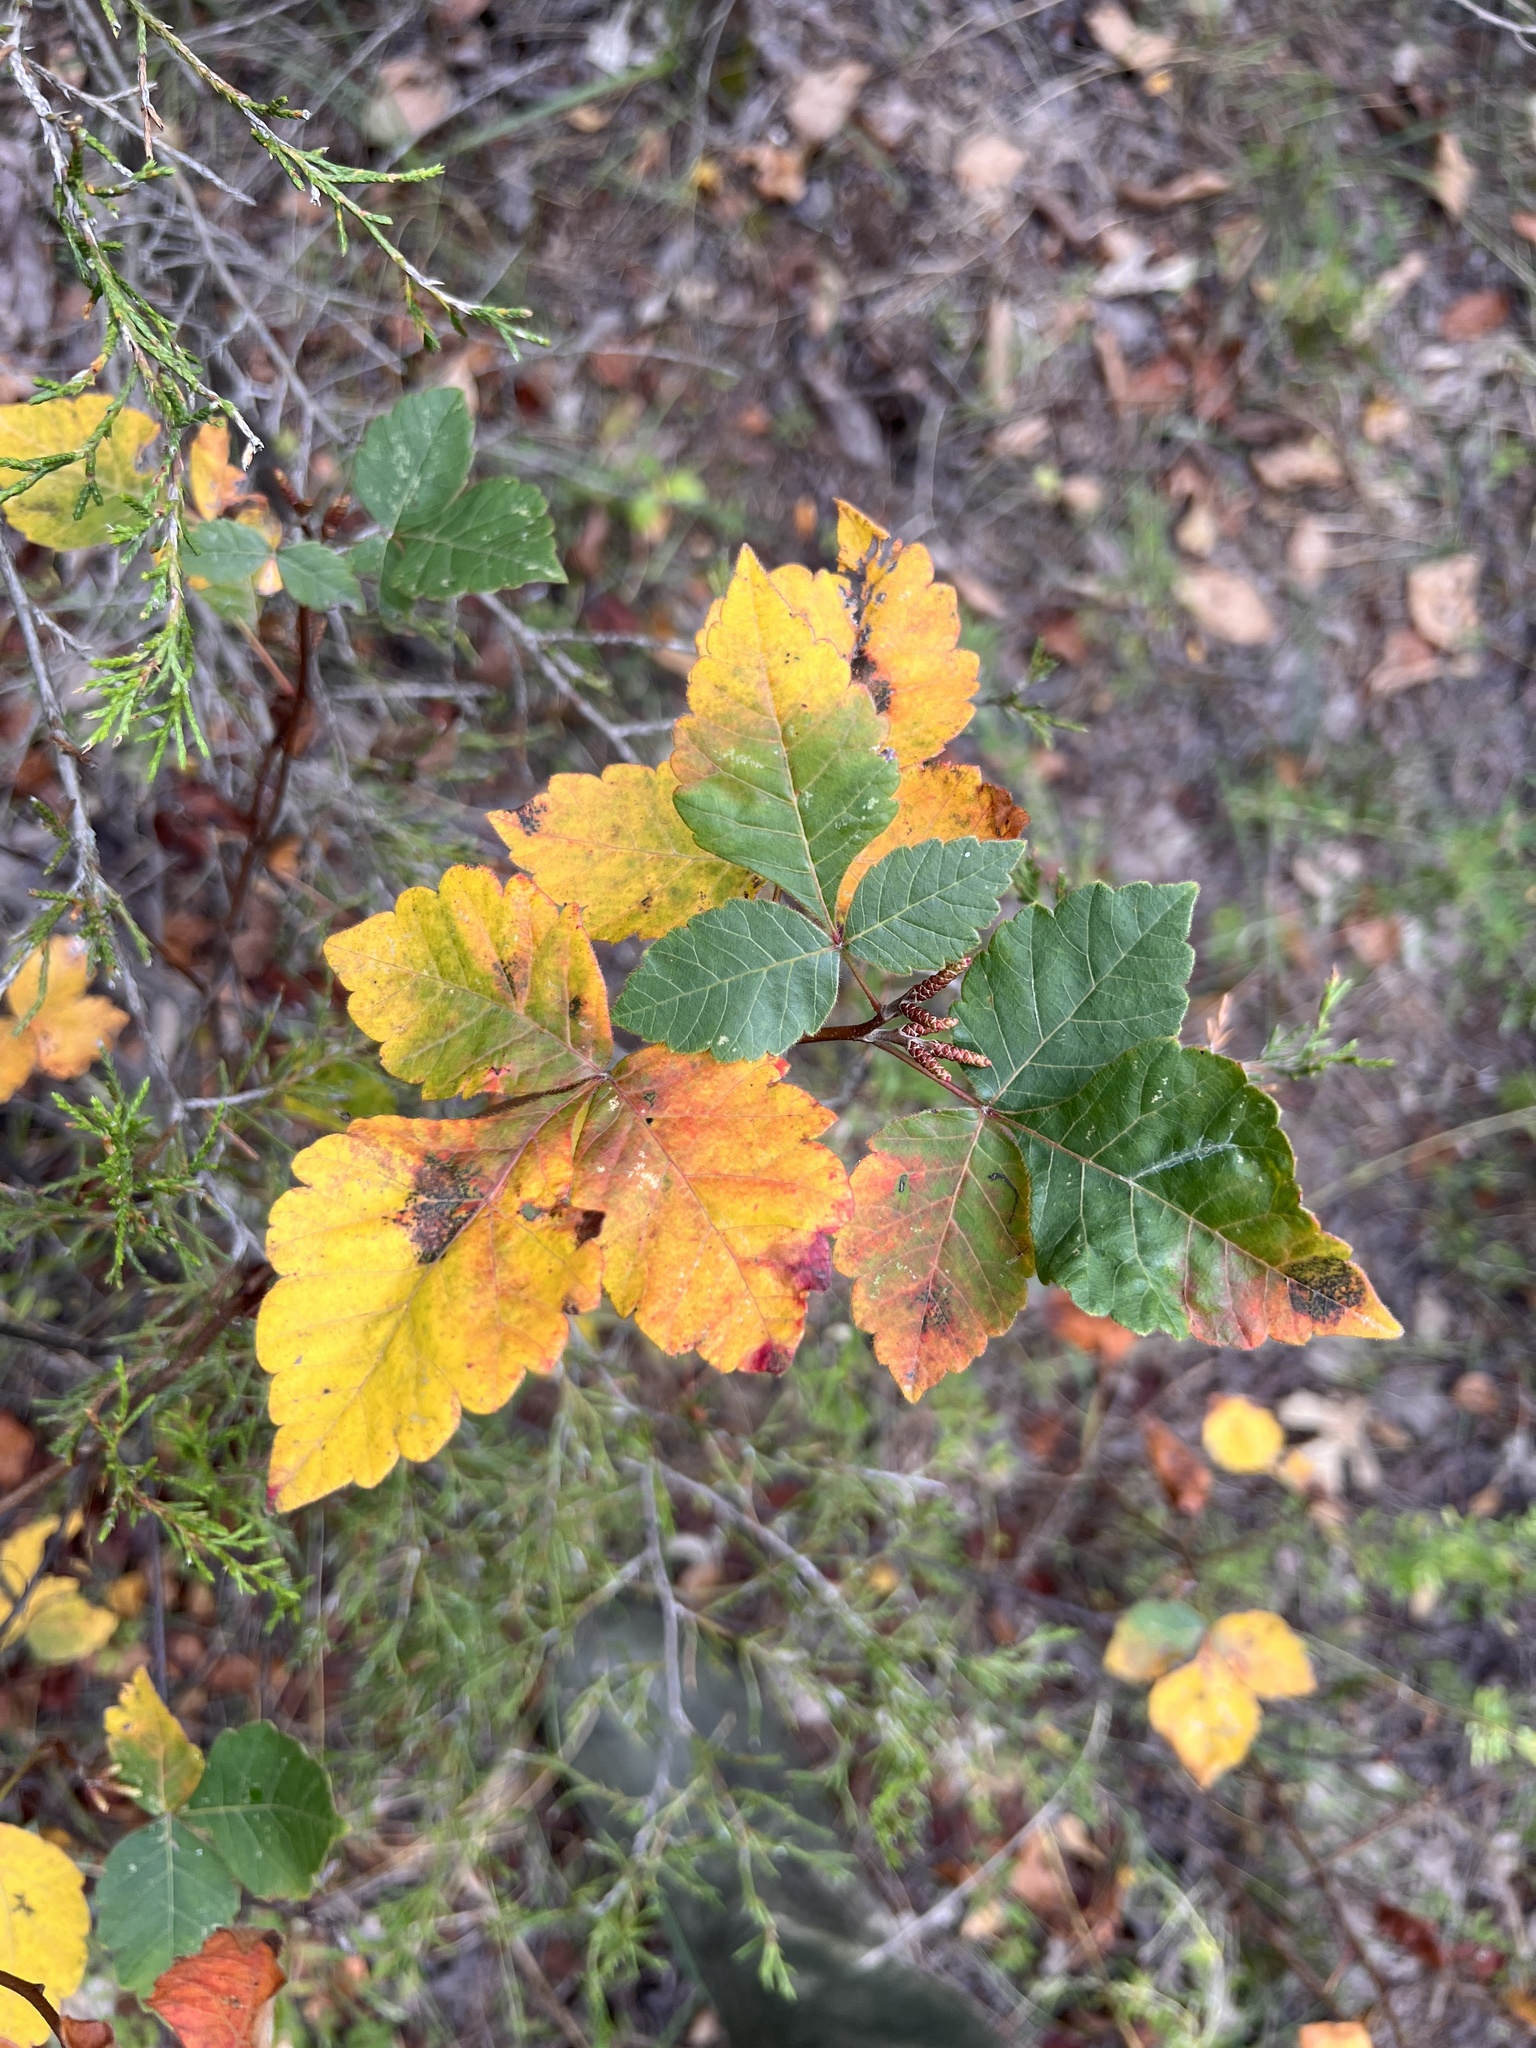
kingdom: Plantae
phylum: Tracheophyta
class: Magnoliopsida
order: Sapindales
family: Anacardiaceae
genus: Rhus
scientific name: Rhus aromatica
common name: Aromatic sumac
